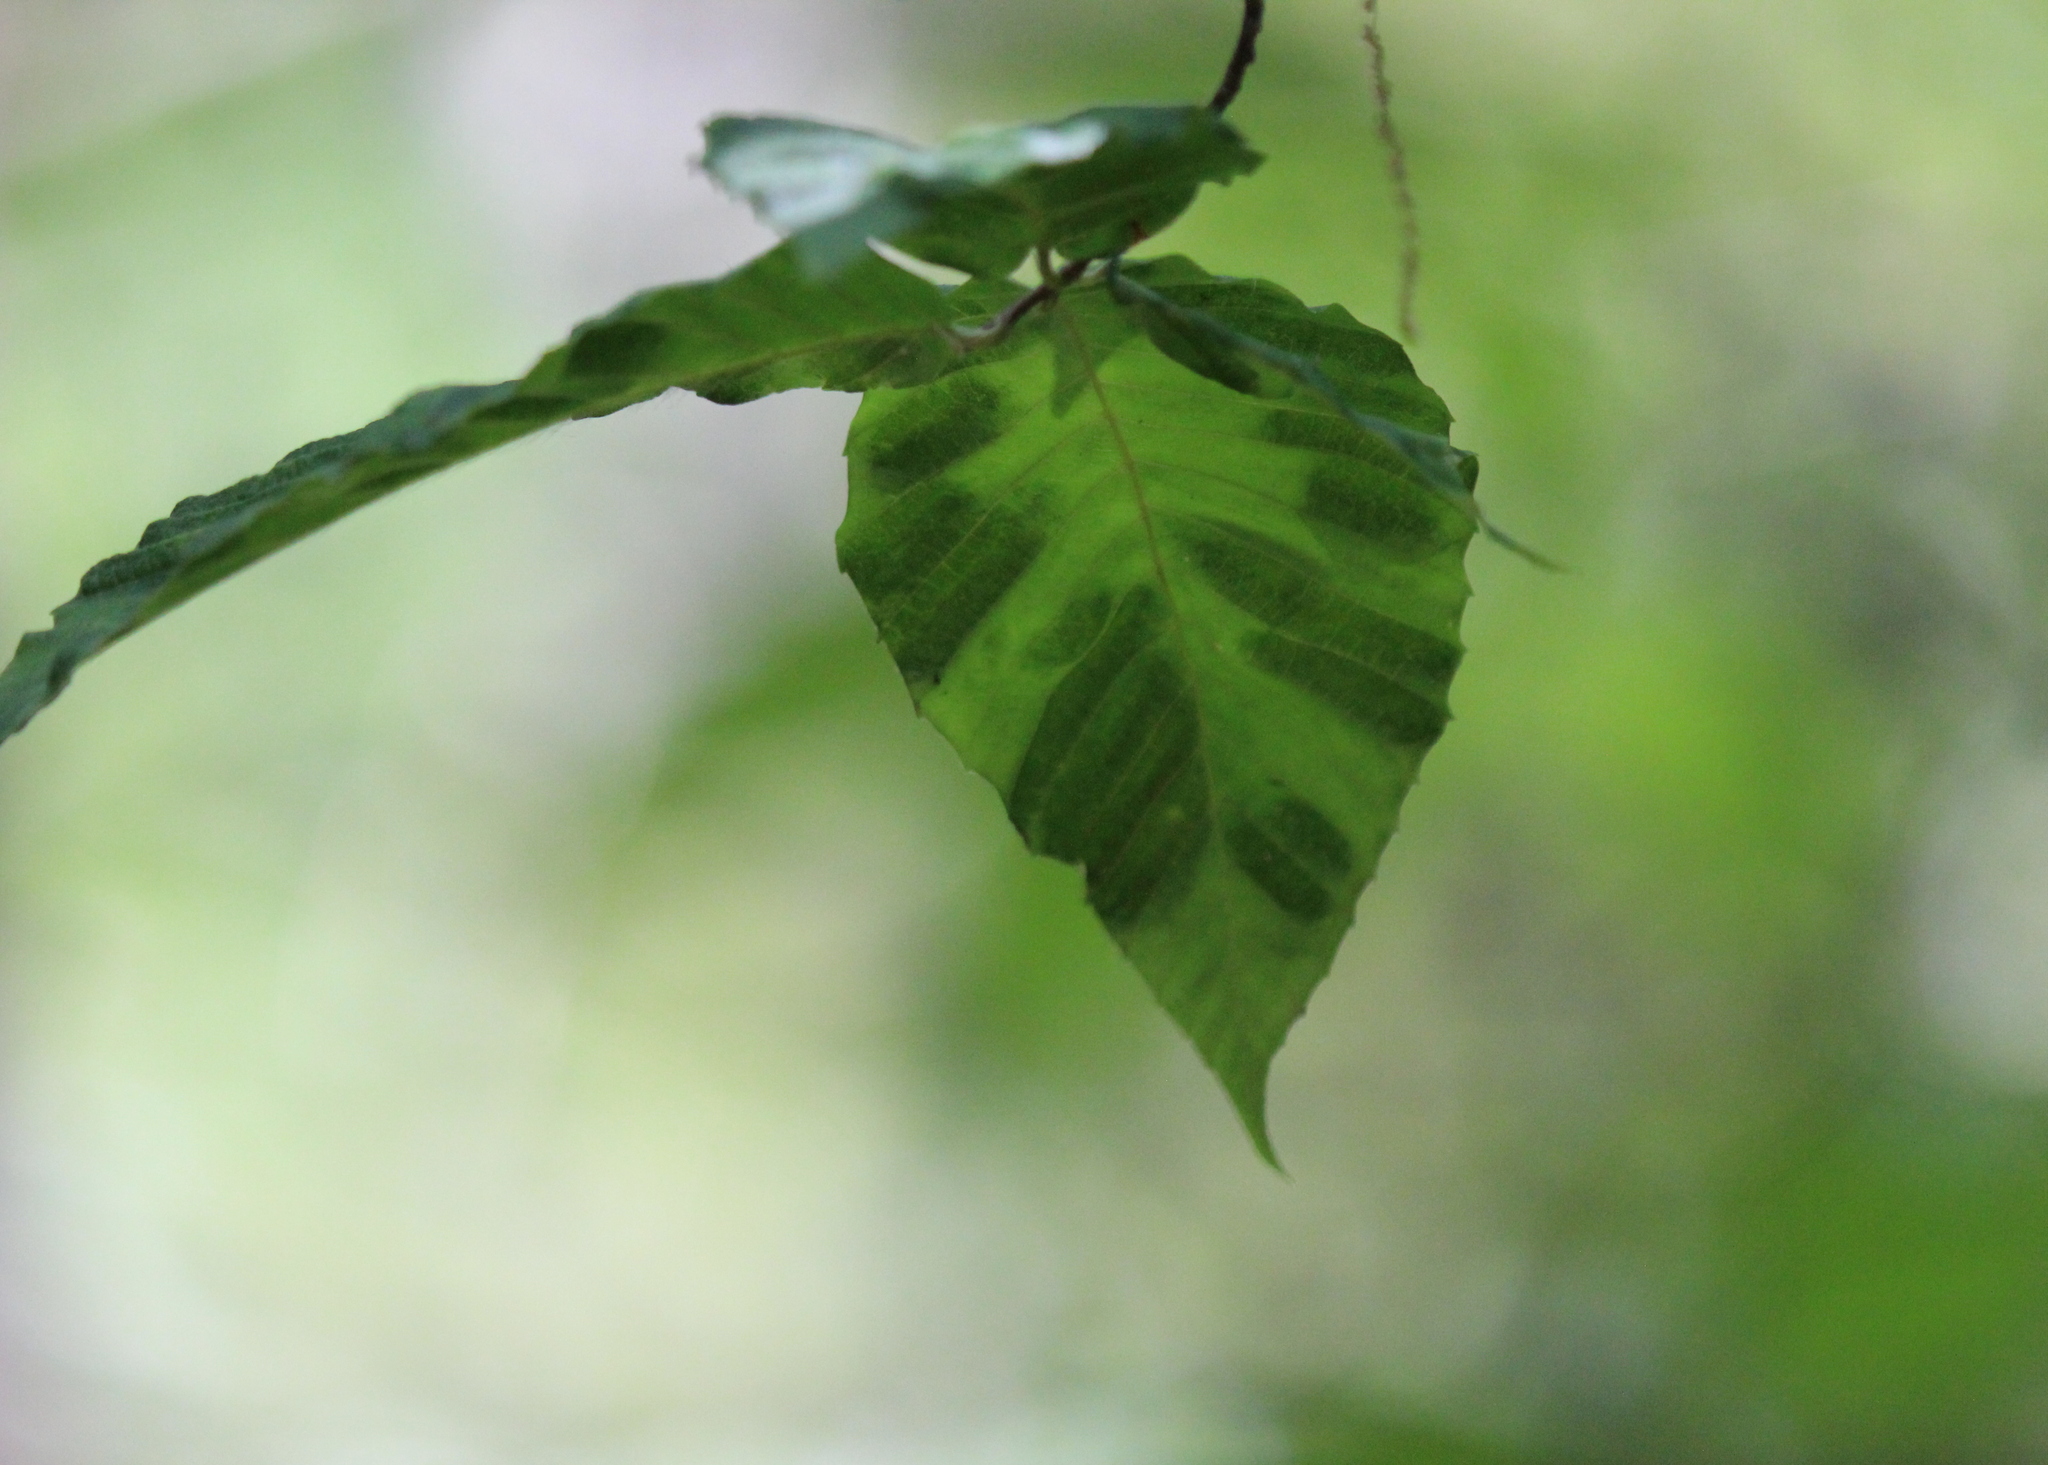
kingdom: Animalia
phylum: Nematoda
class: Chromadorea
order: Rhabditida
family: Anguinidae
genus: Litylenchus
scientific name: Litylenchus crenatae
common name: Beech leaf disease
